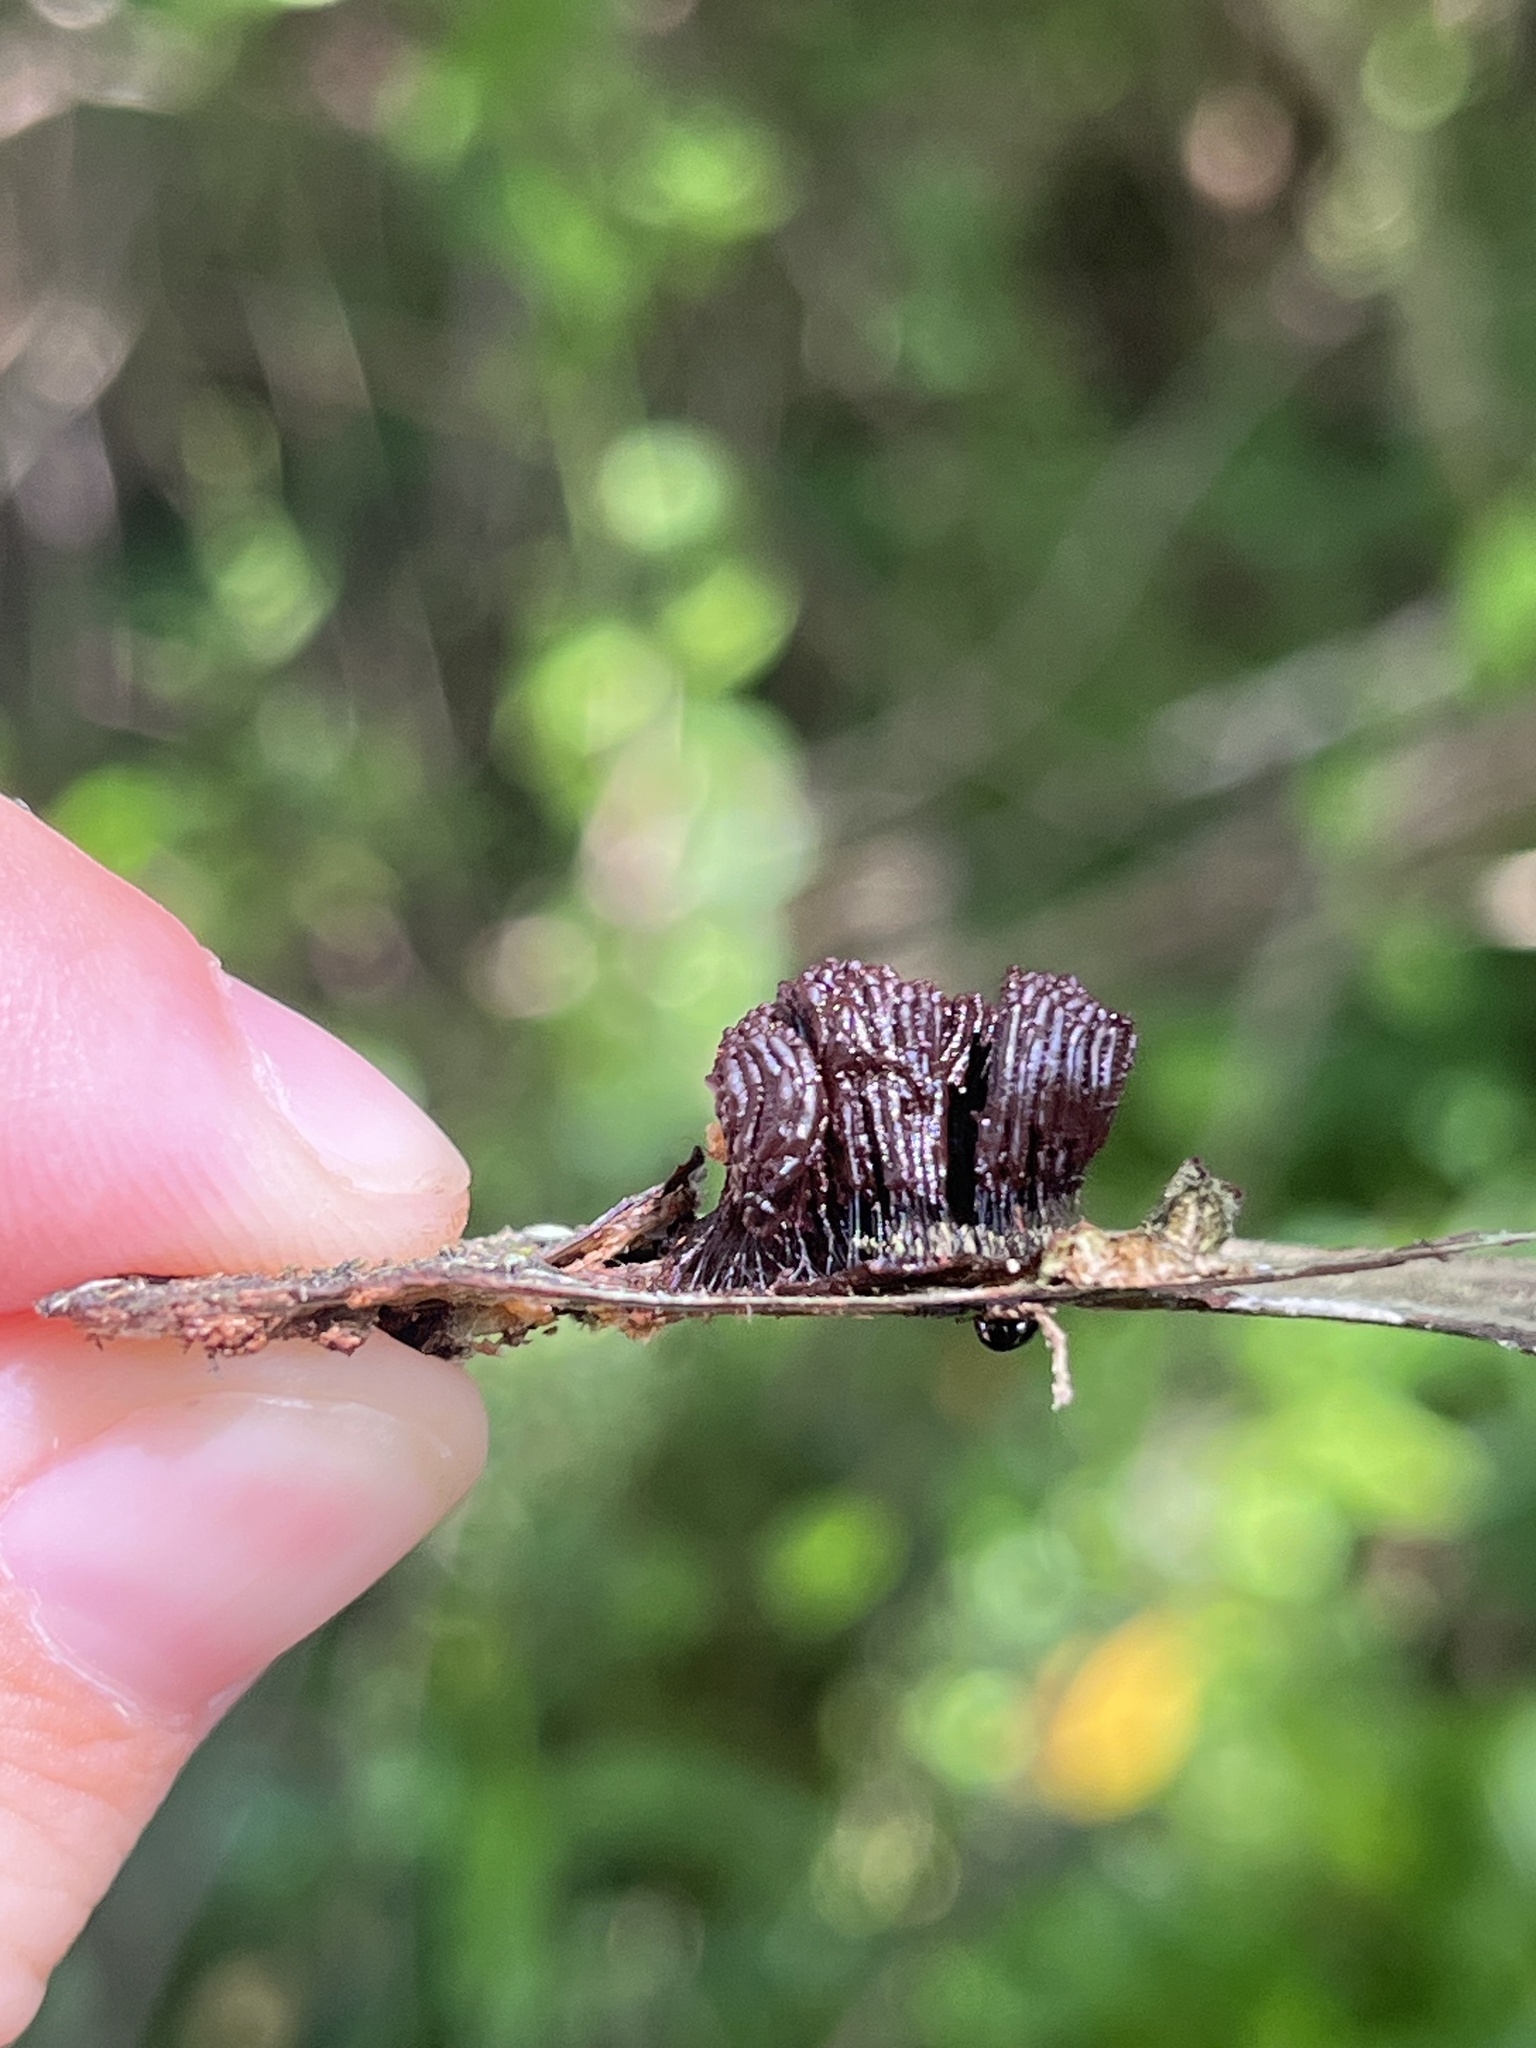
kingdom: Protozoa
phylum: Mycetozoa
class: Myxomycetes
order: Stemonitidales
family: Stemonitidaceae
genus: Stemonitis
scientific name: Stemonitis splendens
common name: Chocolate tube slime
